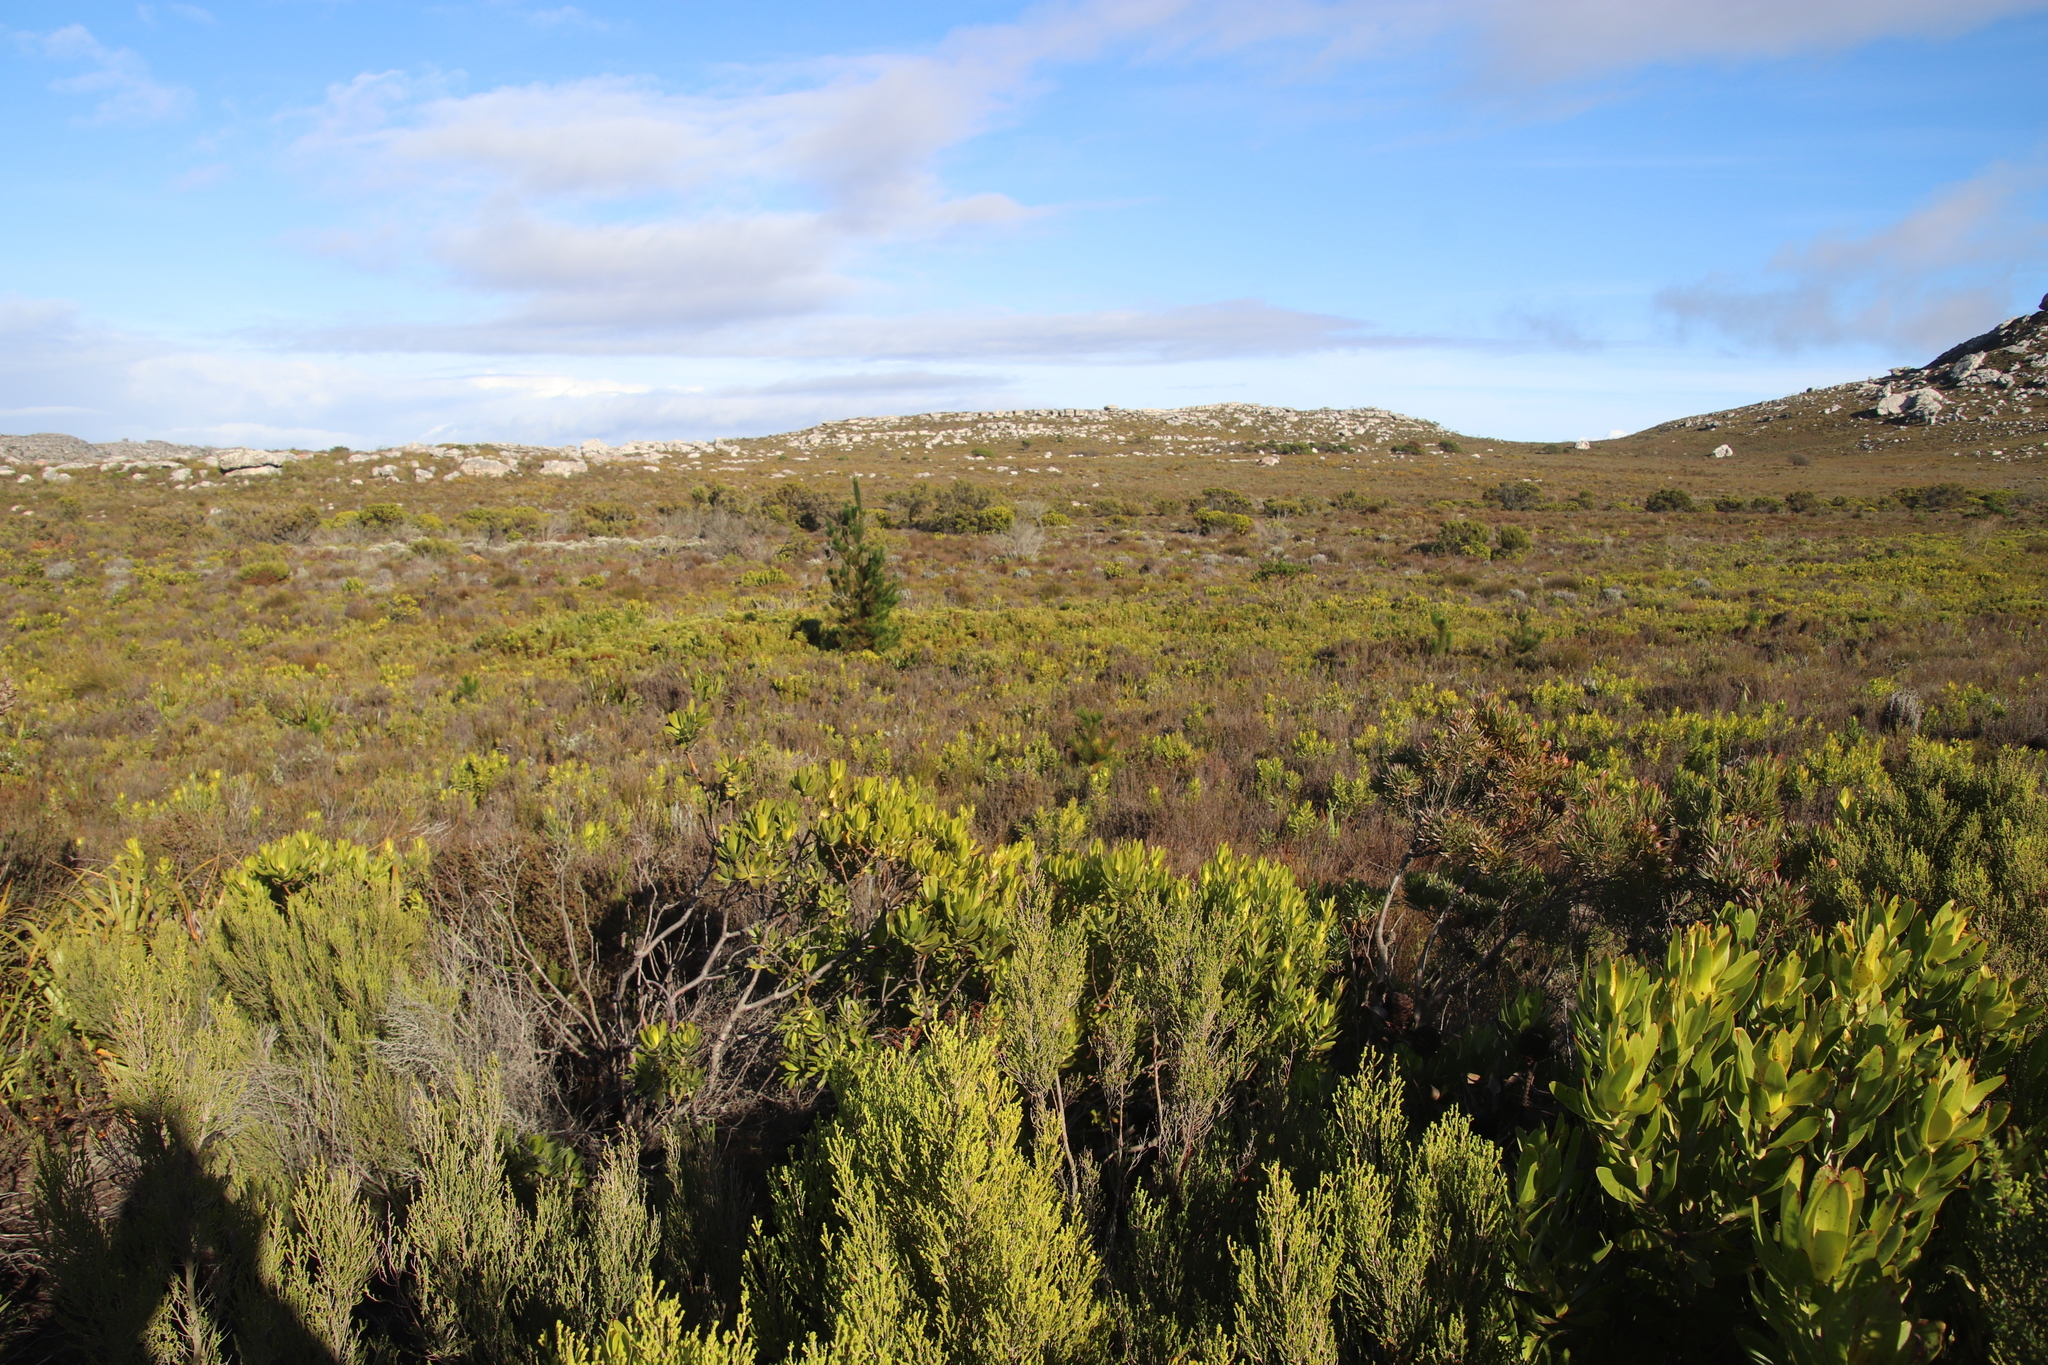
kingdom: Plantae
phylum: Tracheophyta
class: Pinopsida
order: Pinales
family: Pinaceae
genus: Pinus
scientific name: Pinus radiata
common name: Monterey pine
